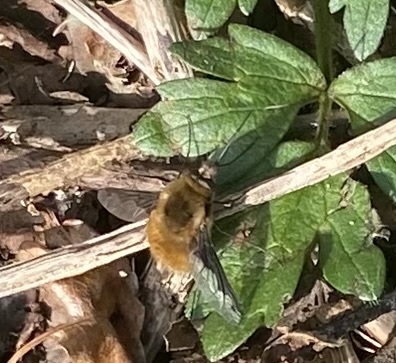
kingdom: Animalia
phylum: Arthropoda
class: Insecta
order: Diptera
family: Bombyliidae
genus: Bombylius
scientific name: Bombylius major
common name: Bee fly
